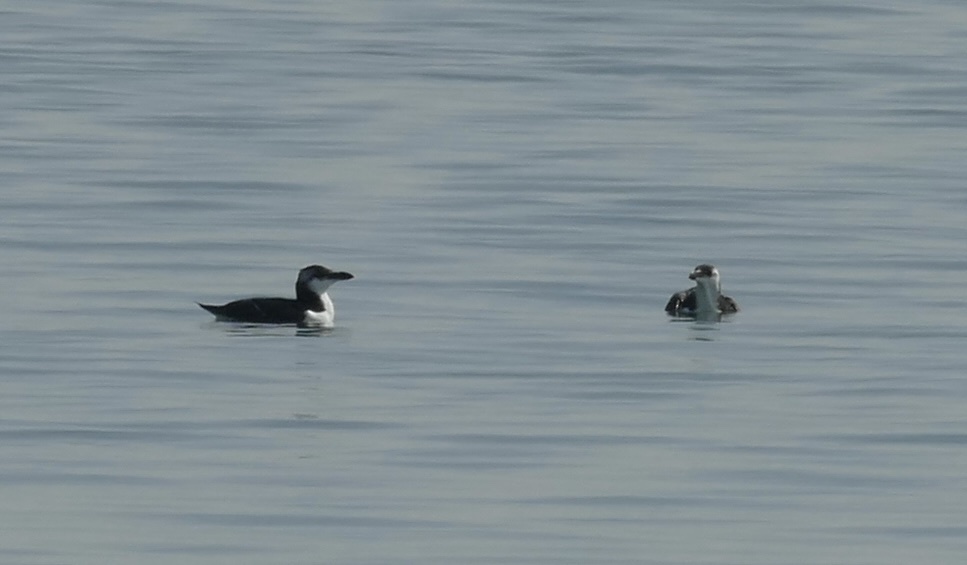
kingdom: Animalia
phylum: Chordata
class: Aves
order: Charadriiformes
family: Alcidae
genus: Alca
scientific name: Alca torda
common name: Razorbill
